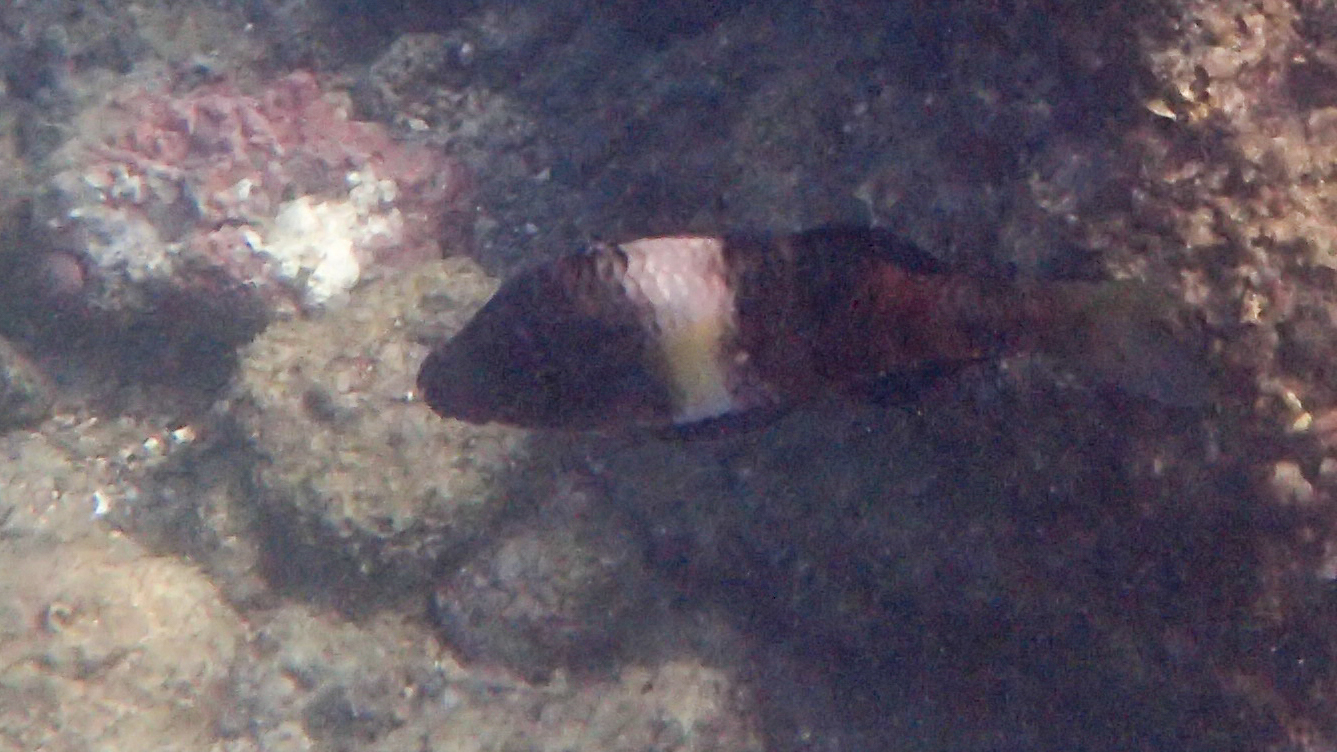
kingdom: Animalia
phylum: Chordata
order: Perciformes
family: Mullidae
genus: Parupeneus
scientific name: Parupeneus multifasciatus
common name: Manybar goatfish
